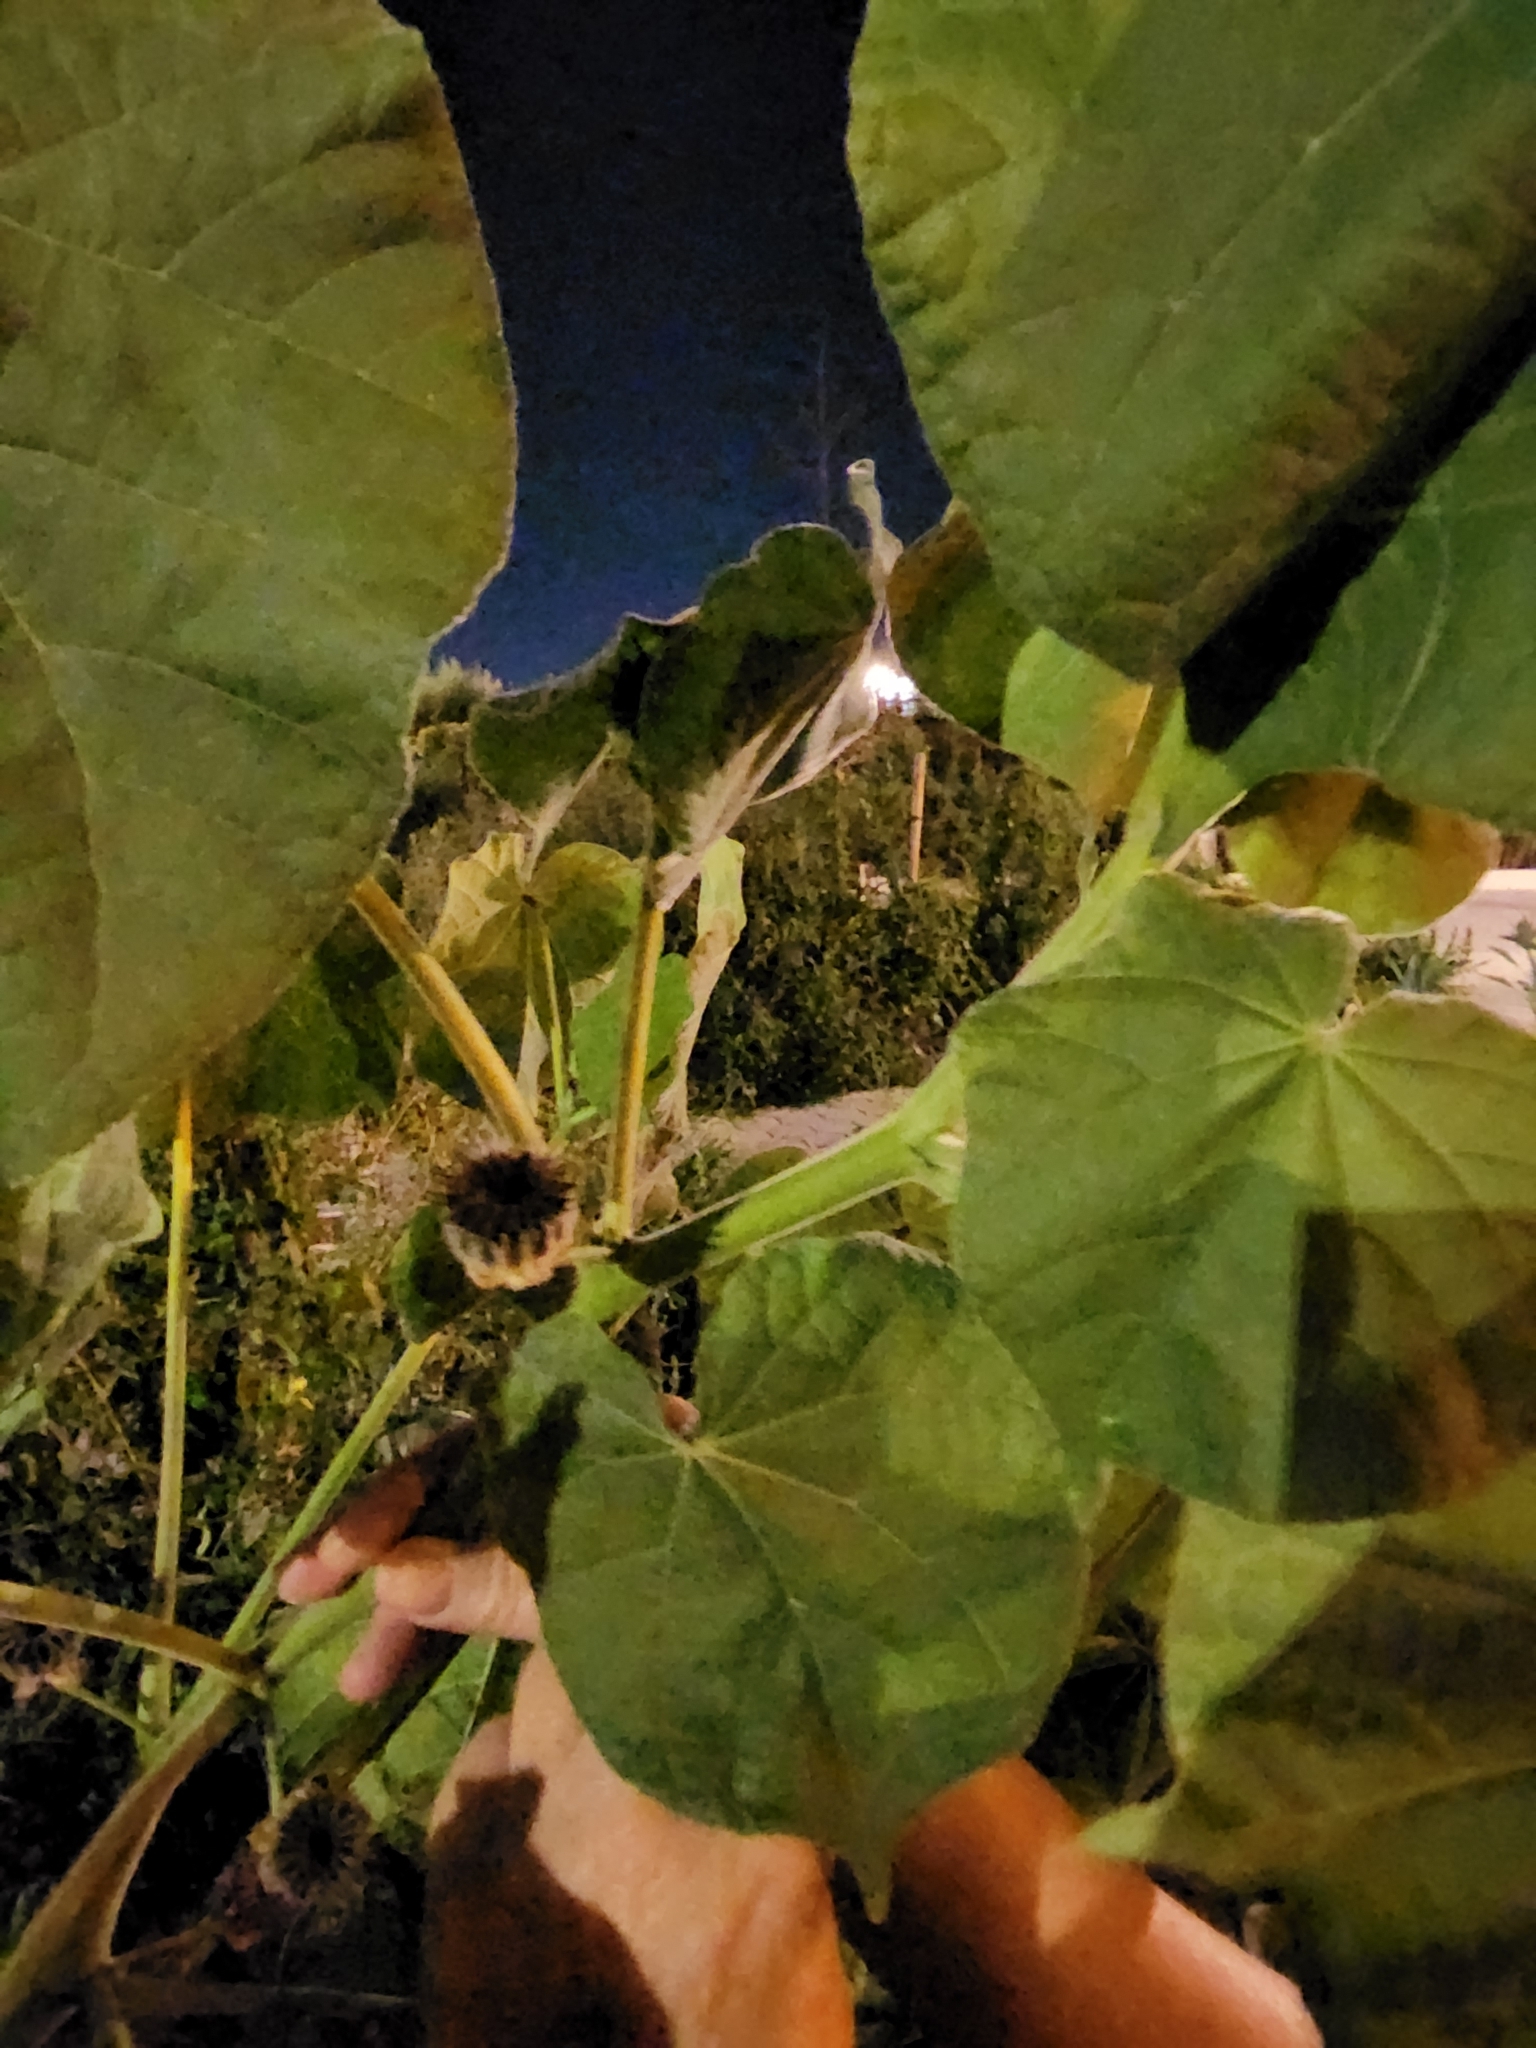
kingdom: Plantae
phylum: Tracheophyta
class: Magnoliopsida
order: Malvales
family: Malvaceae
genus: Abutilon
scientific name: Abutilon theophrasti
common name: Velvetleaf
